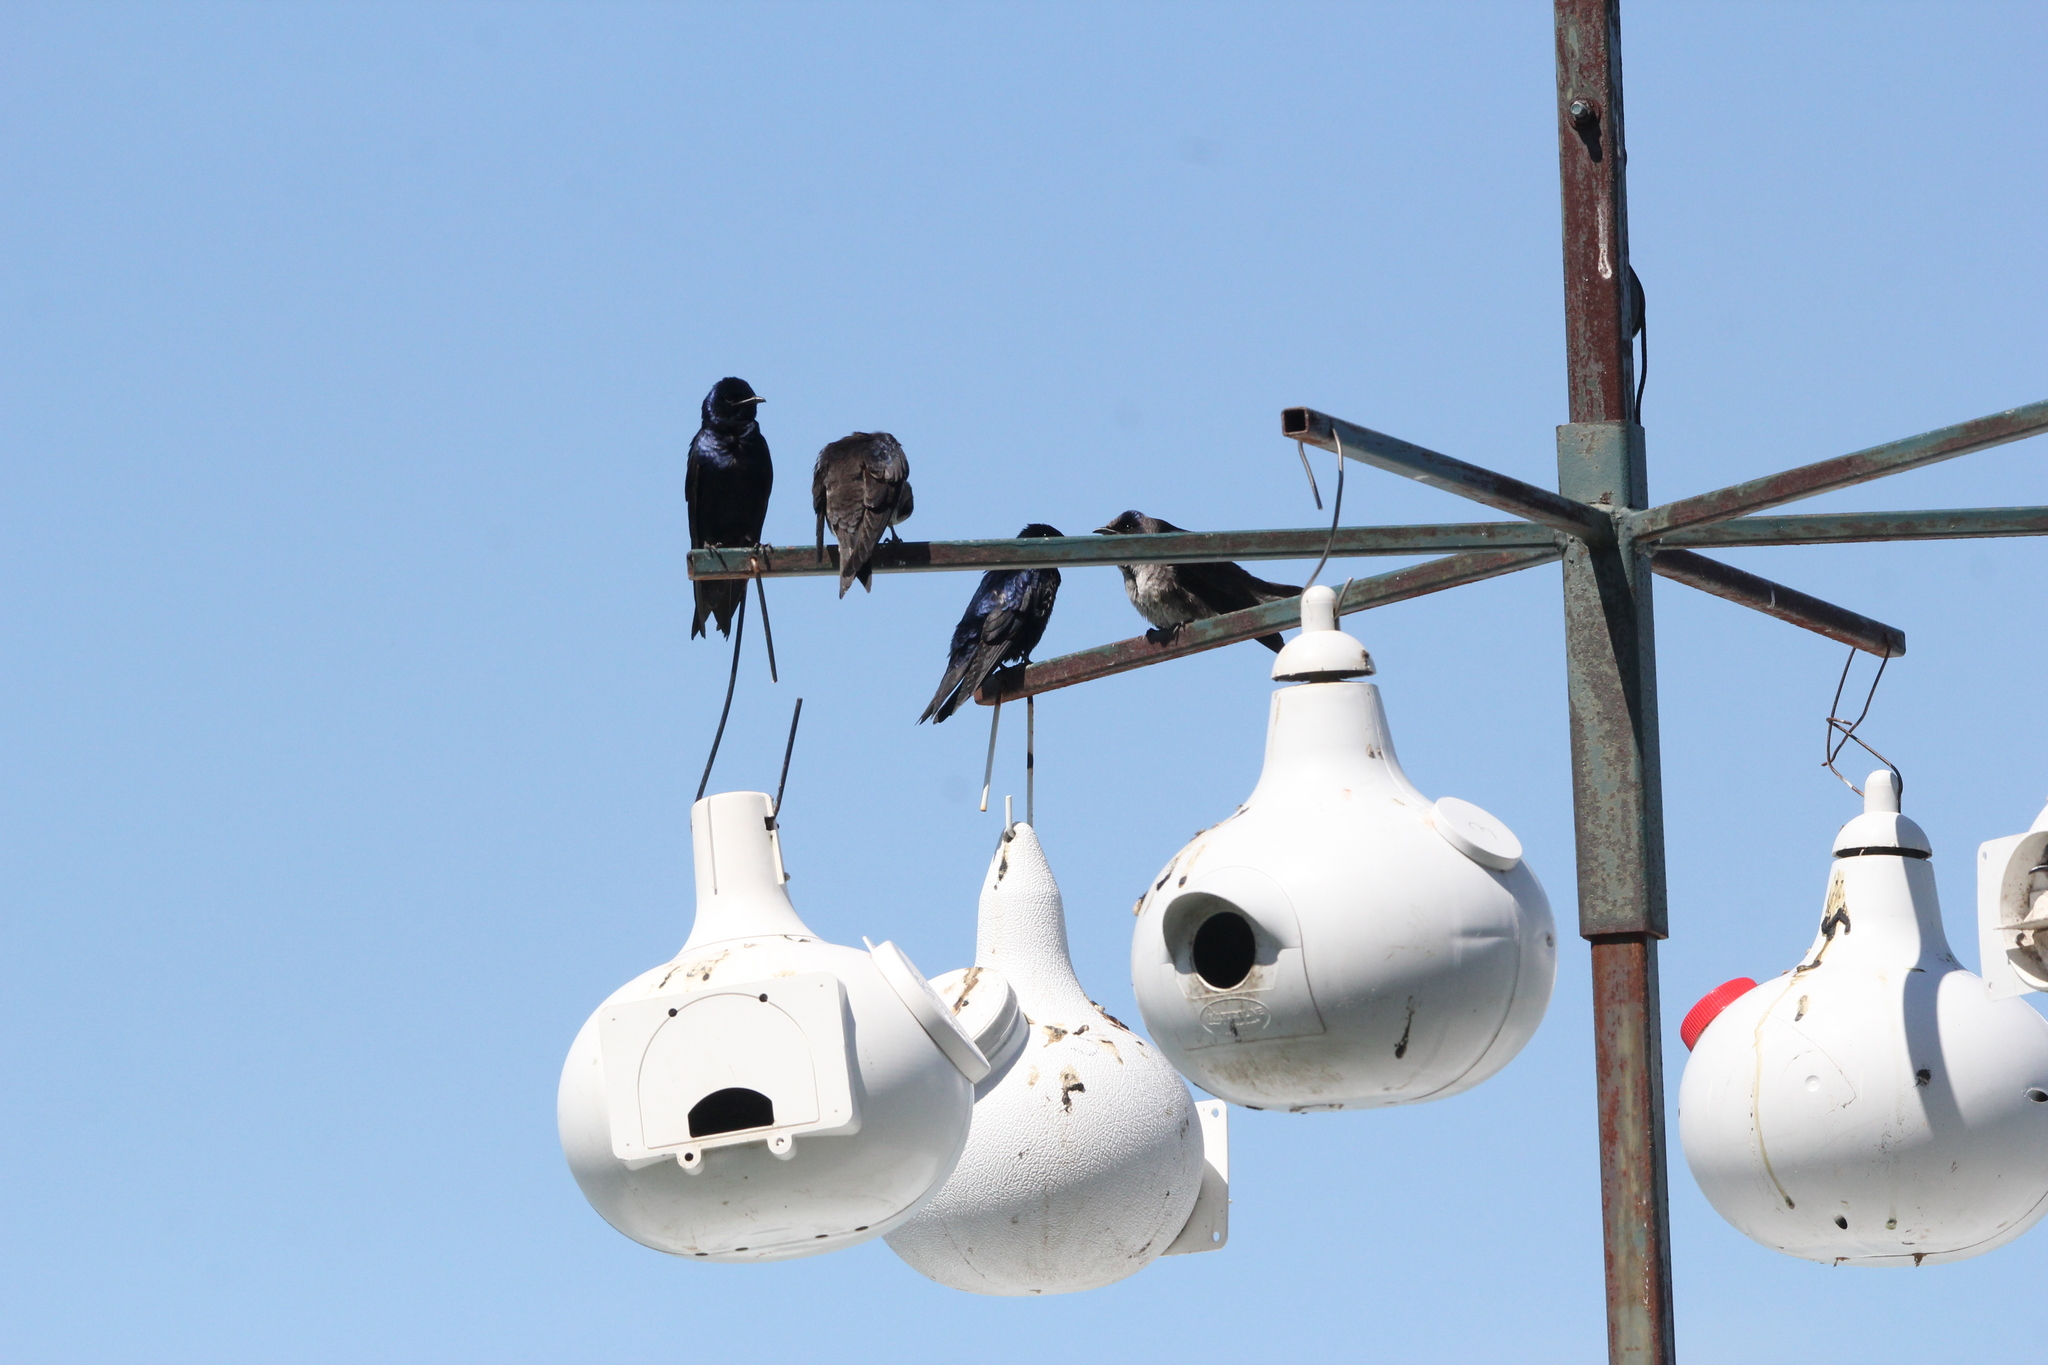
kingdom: Animalia
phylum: Chordata
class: Aves
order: Passeriformes
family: Hirundinidae
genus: Progne
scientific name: Progne subis
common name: Purple martin
